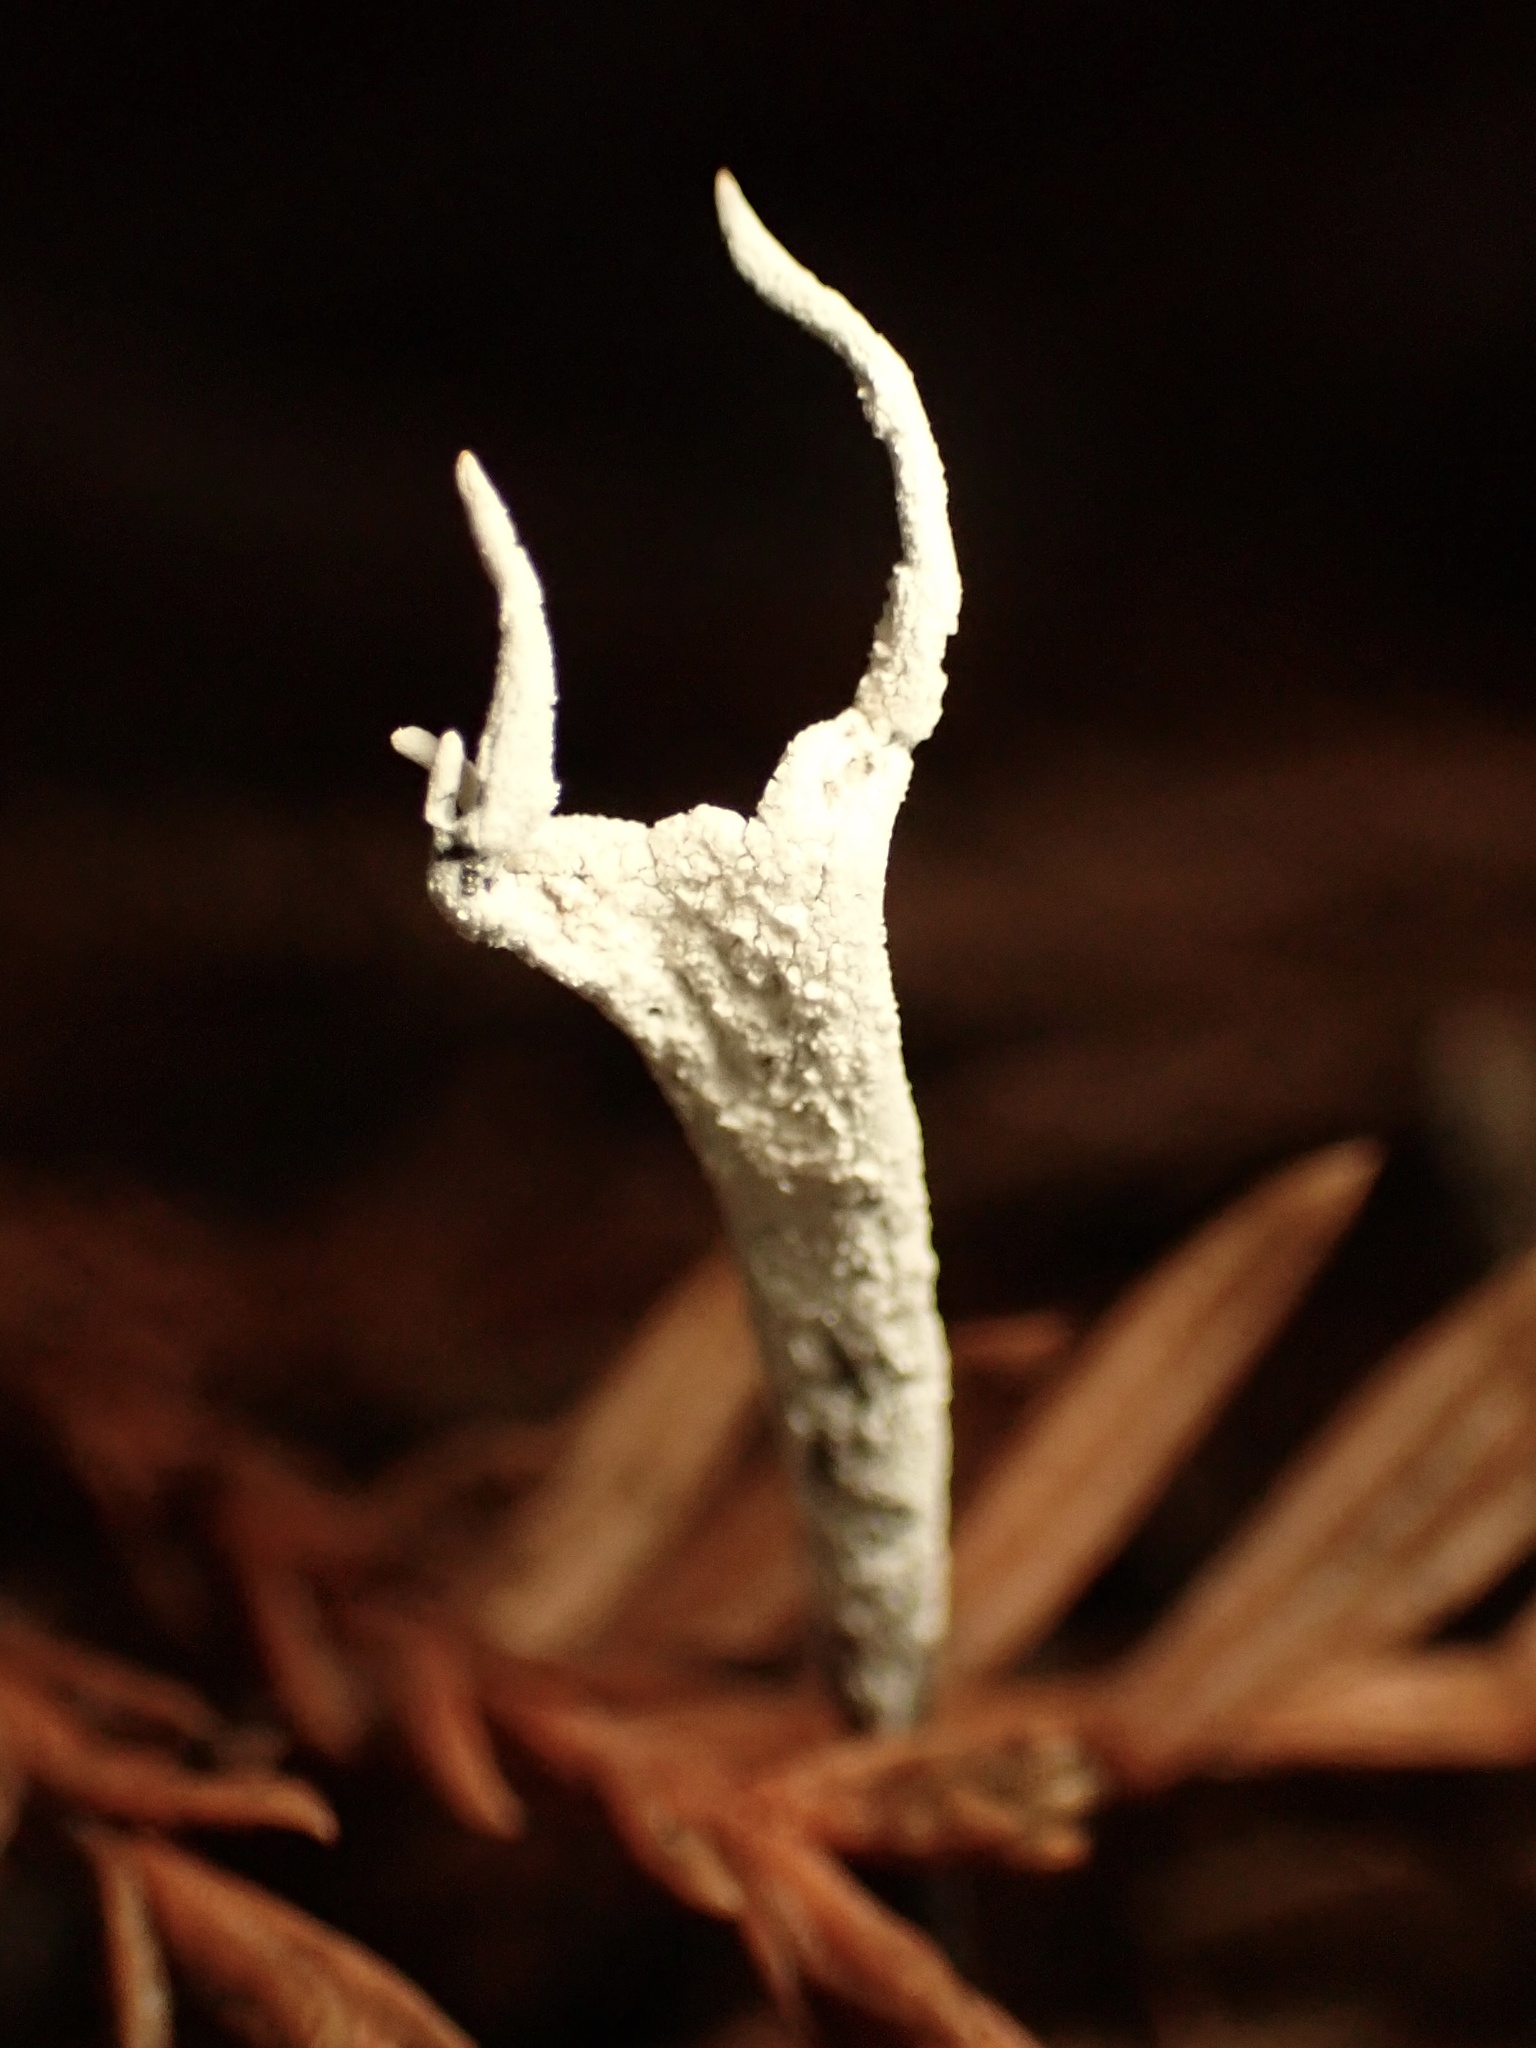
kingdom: Fungi
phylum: Ascomycota
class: Sordariomycetes
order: Xylariales
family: Xylariaceae
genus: Xylaria
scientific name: Xylaria hypoxylon
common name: Candle-snuff fungus
